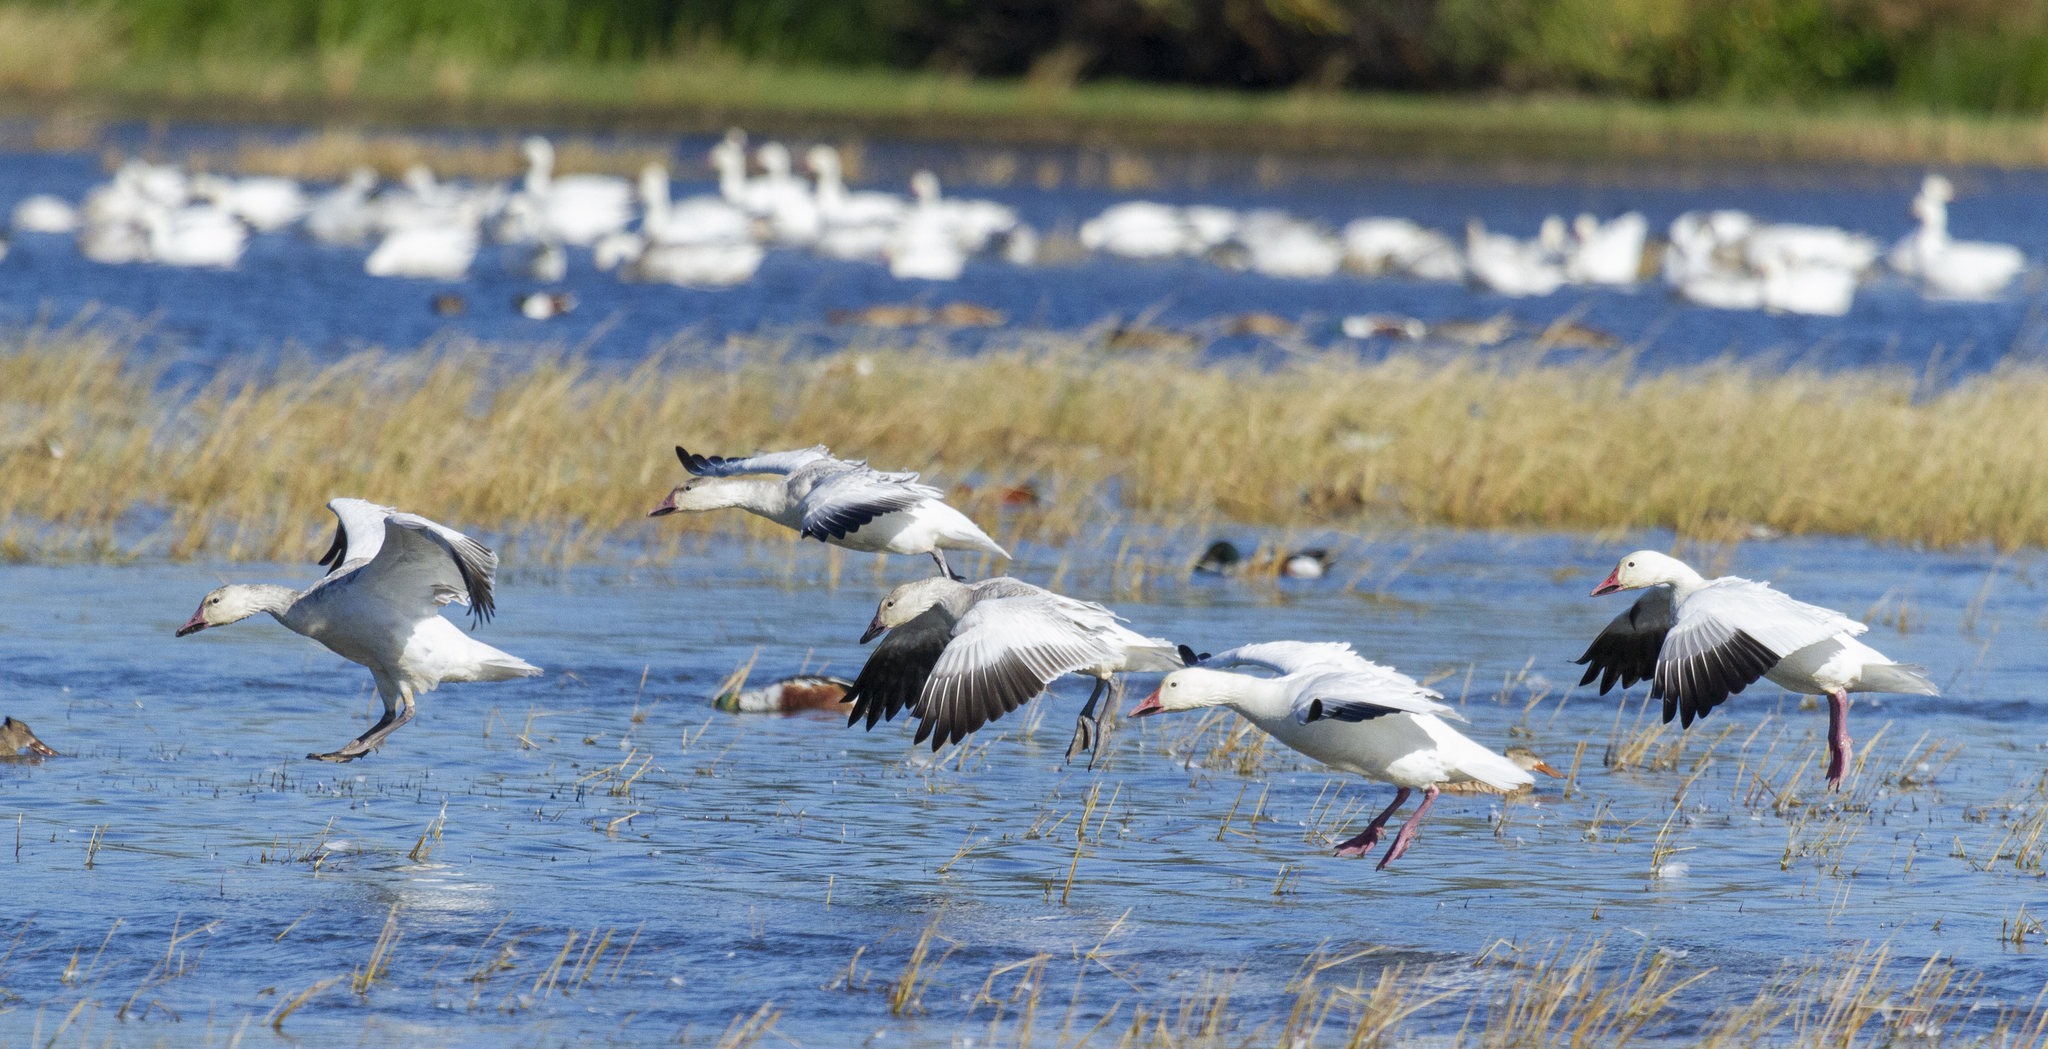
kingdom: Animalia
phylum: Chordata
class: Aves
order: Anseriformes
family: Anatidae
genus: Anser
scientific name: Anser caerulescens
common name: Snow goose
